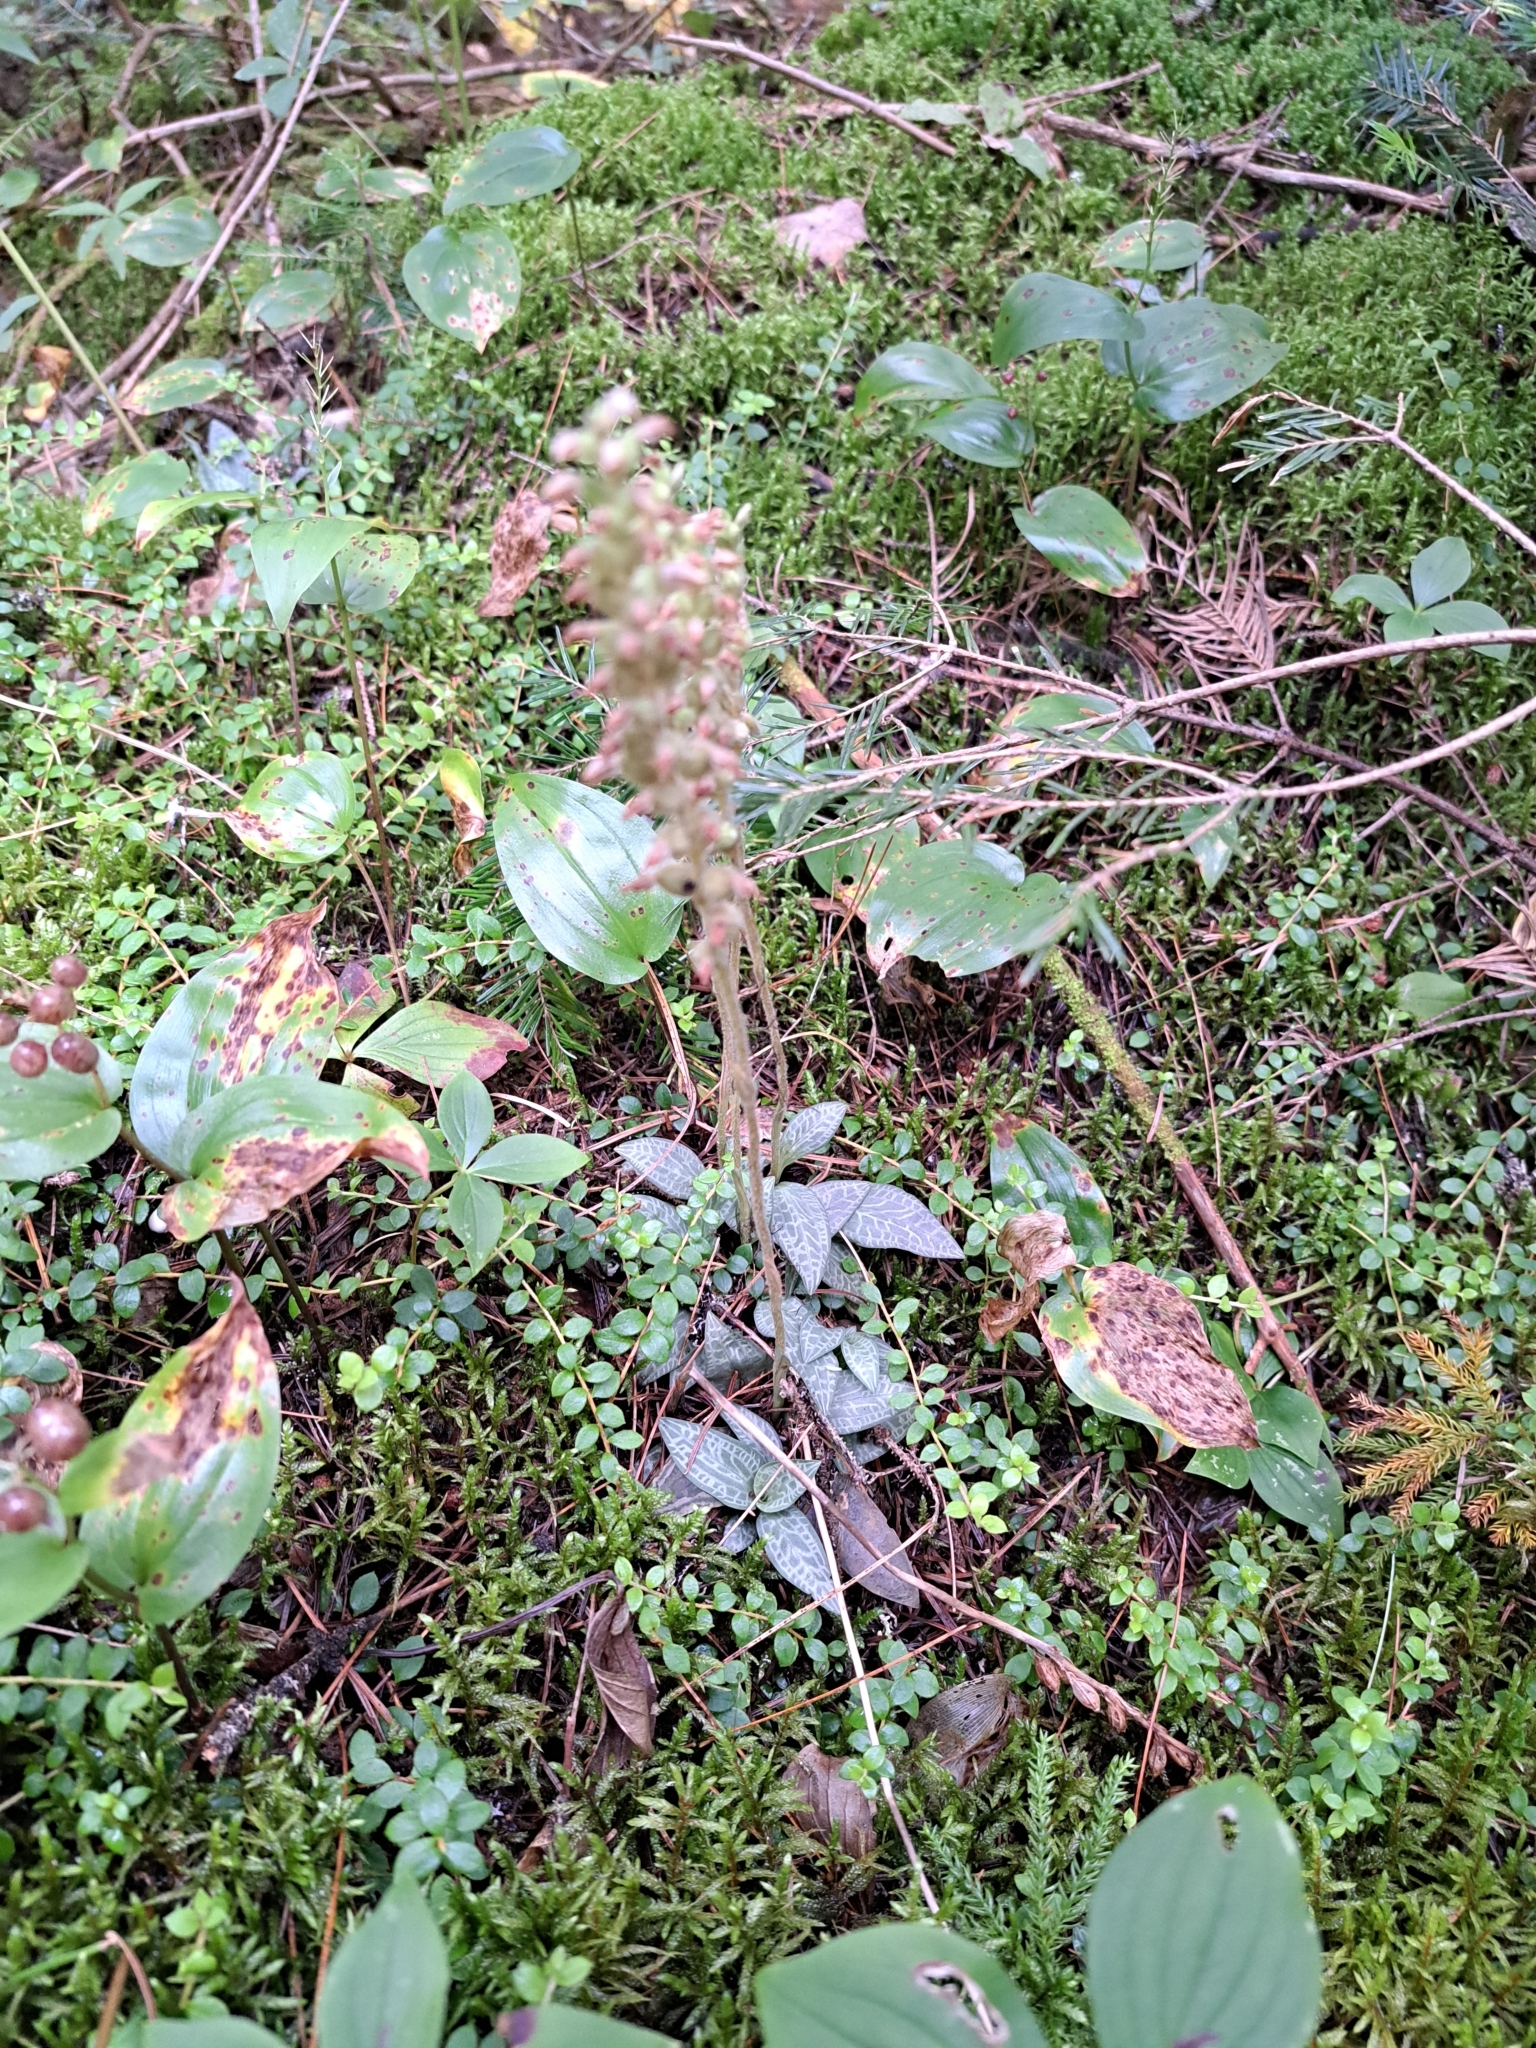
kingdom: Plantae
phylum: Tracheophyta
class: Liliopsida
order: Asparagales
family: Orchidaceae
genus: Goodyera
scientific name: Goodyera tesselata
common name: Checkered rattlesnake-plantain
